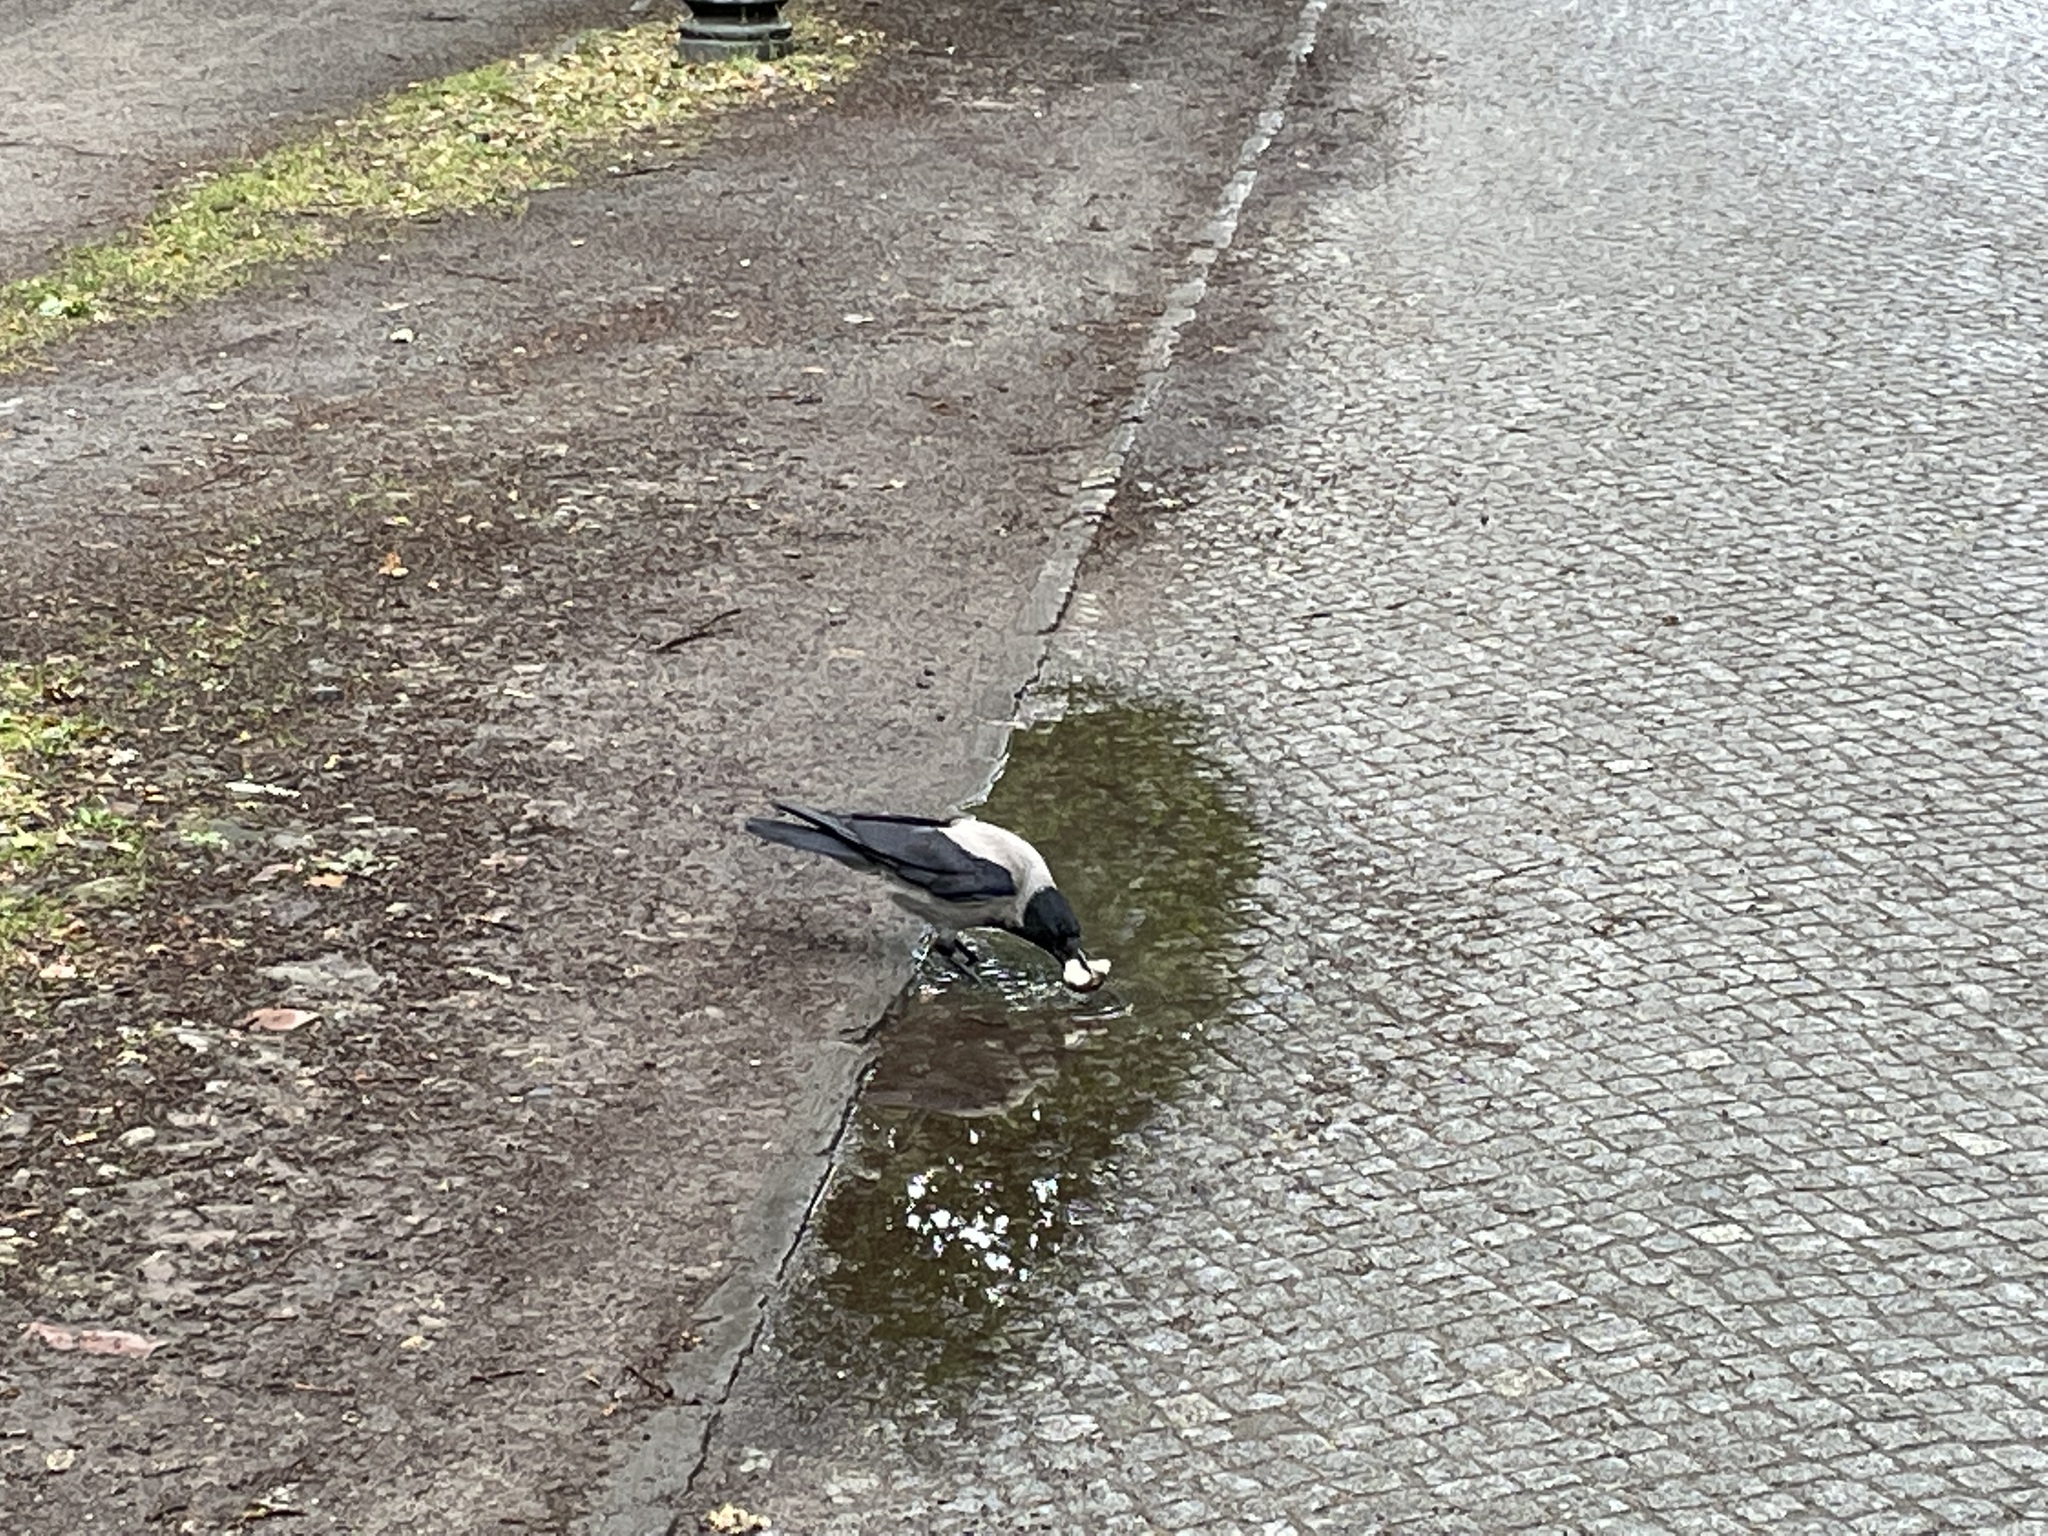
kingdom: Animalia
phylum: Chordata
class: Aves
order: Passeriformes
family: Corvidae
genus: Corvus
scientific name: Corvus cornix
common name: Hooded crow
